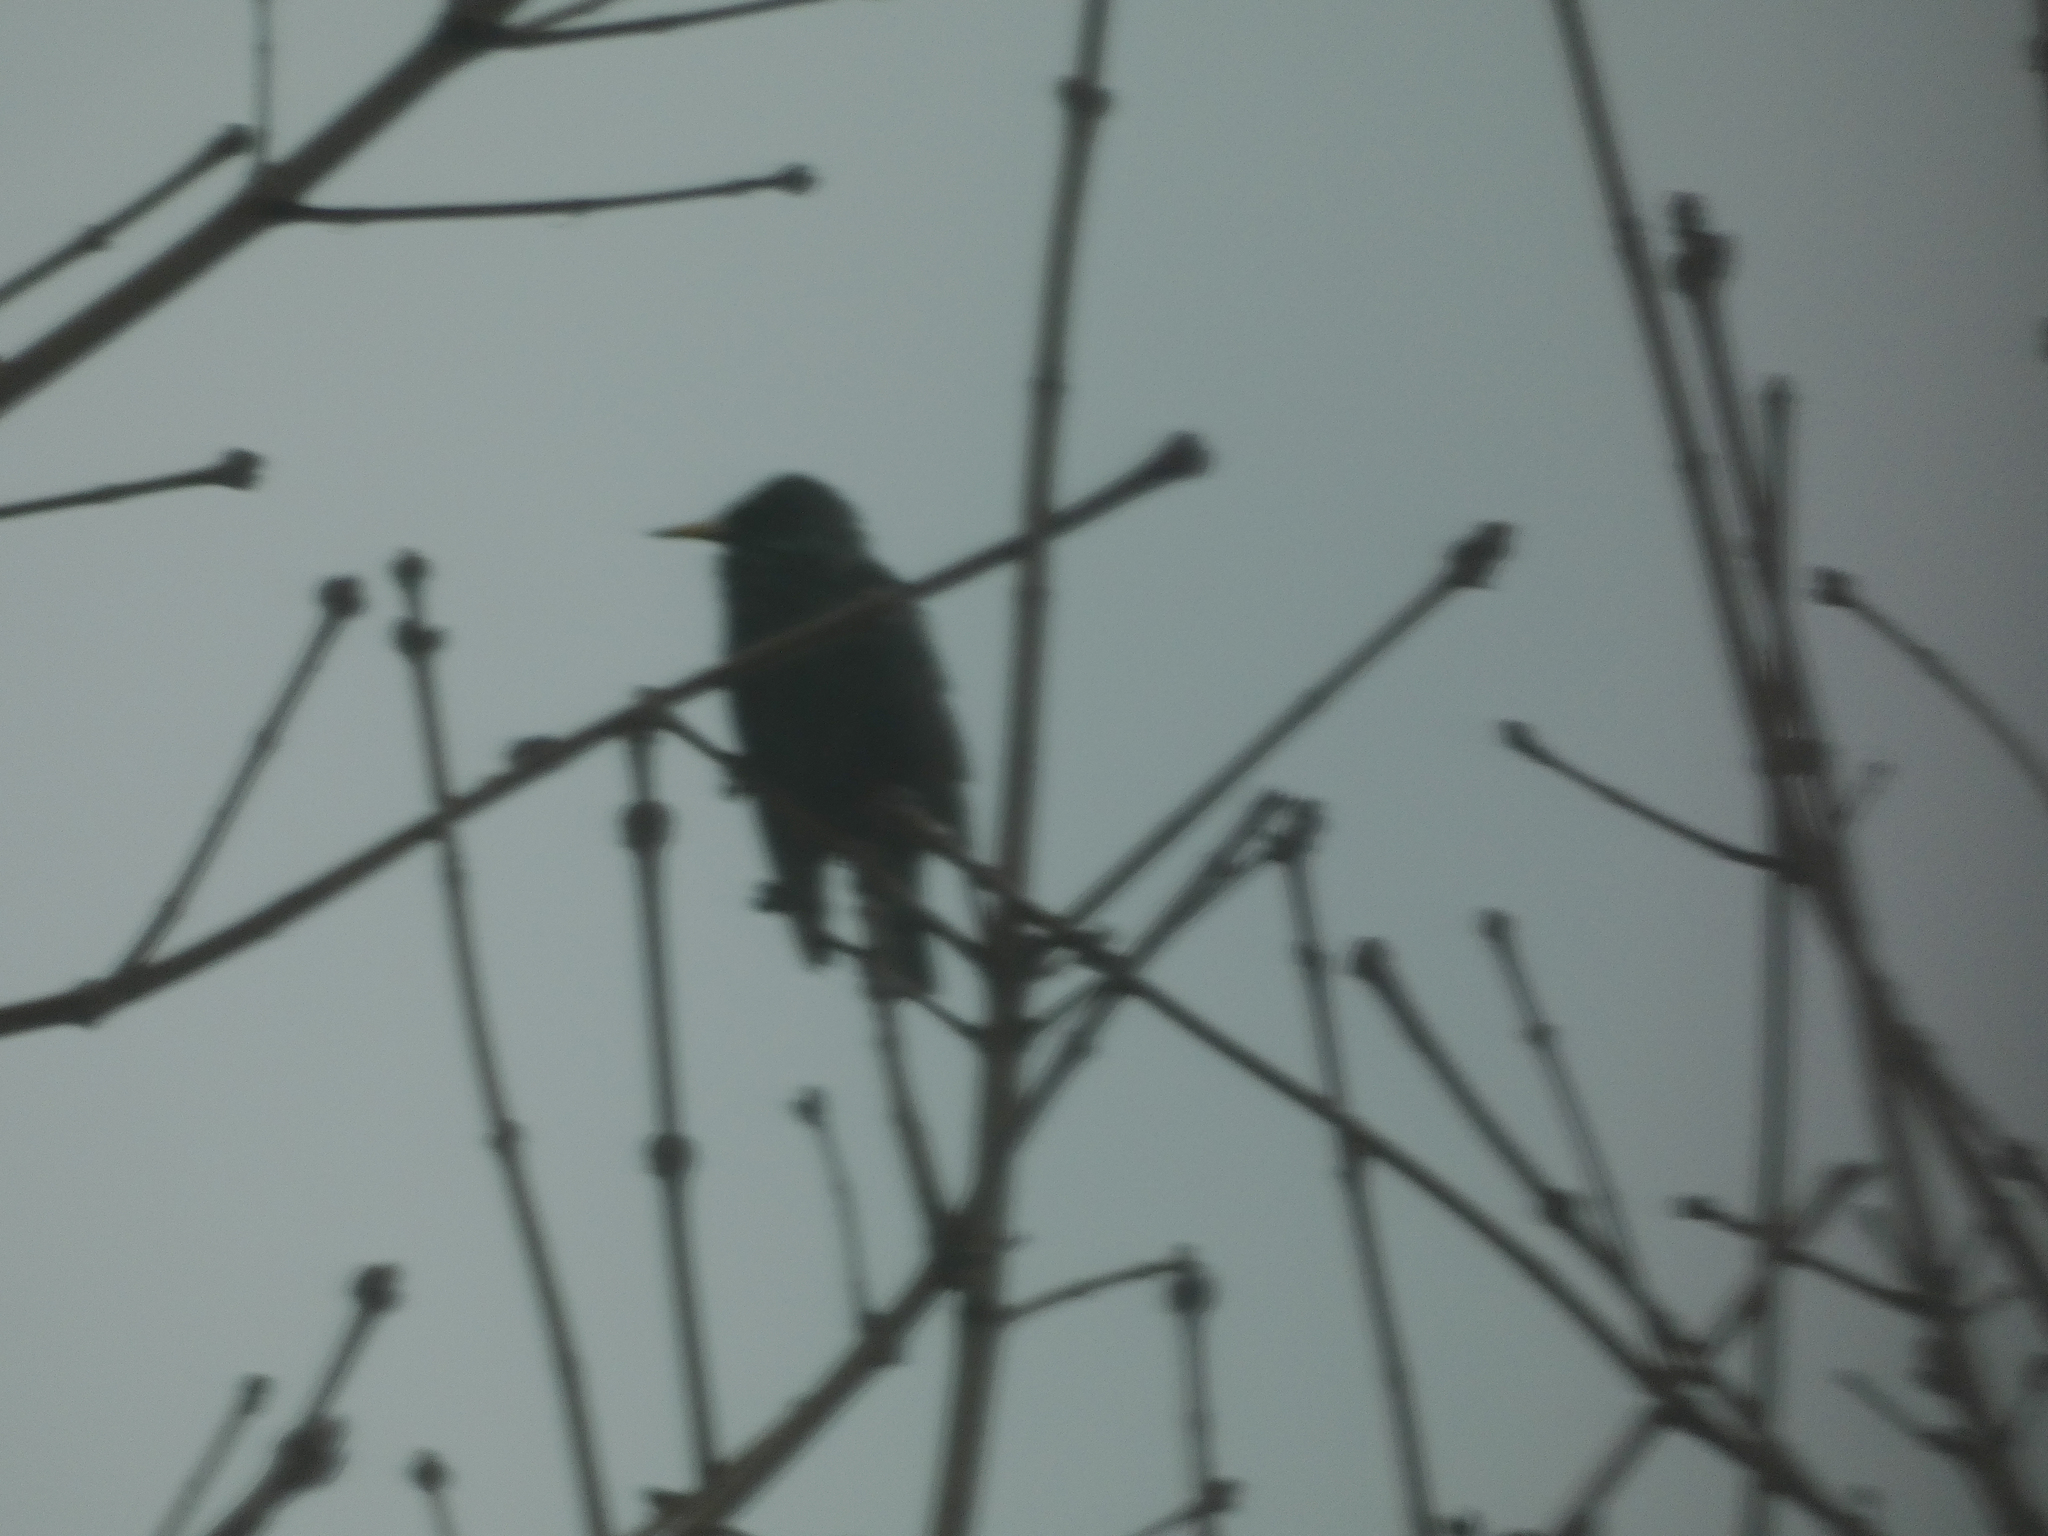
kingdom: Animalia
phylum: Chordata
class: Aves
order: Passeriformes
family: Sturnidae
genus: Sturnus
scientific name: Sturnus vulgaris
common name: Common starling
